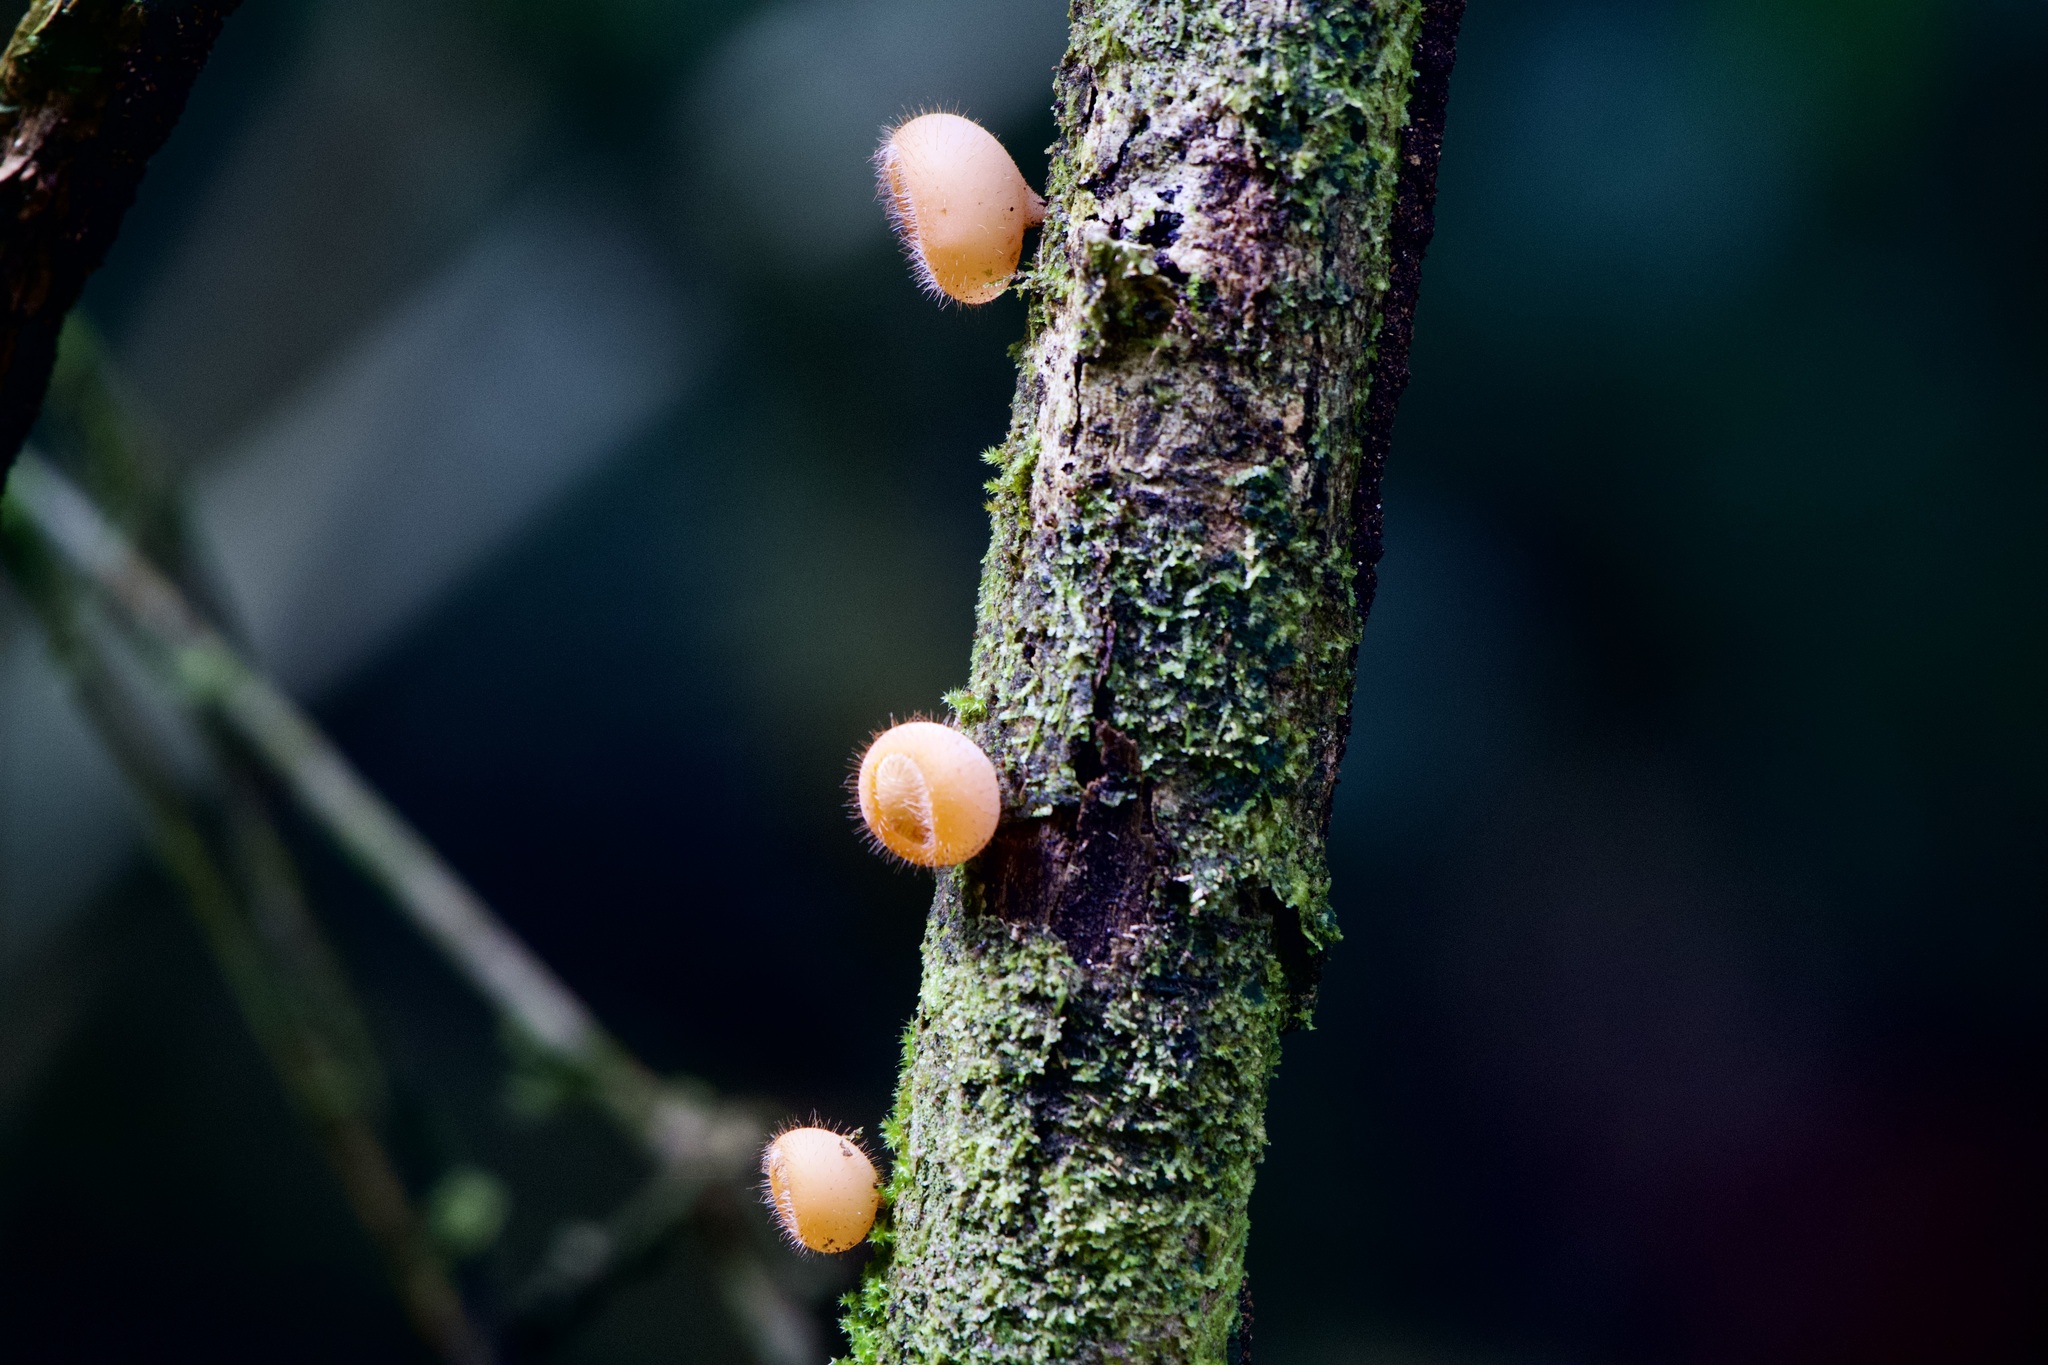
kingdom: Fungi
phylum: Ascomycota
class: Pezizomycetes
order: Pezizales
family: Sarcoscyphaceae
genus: Cookeina
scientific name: Cookeina tricholoma
